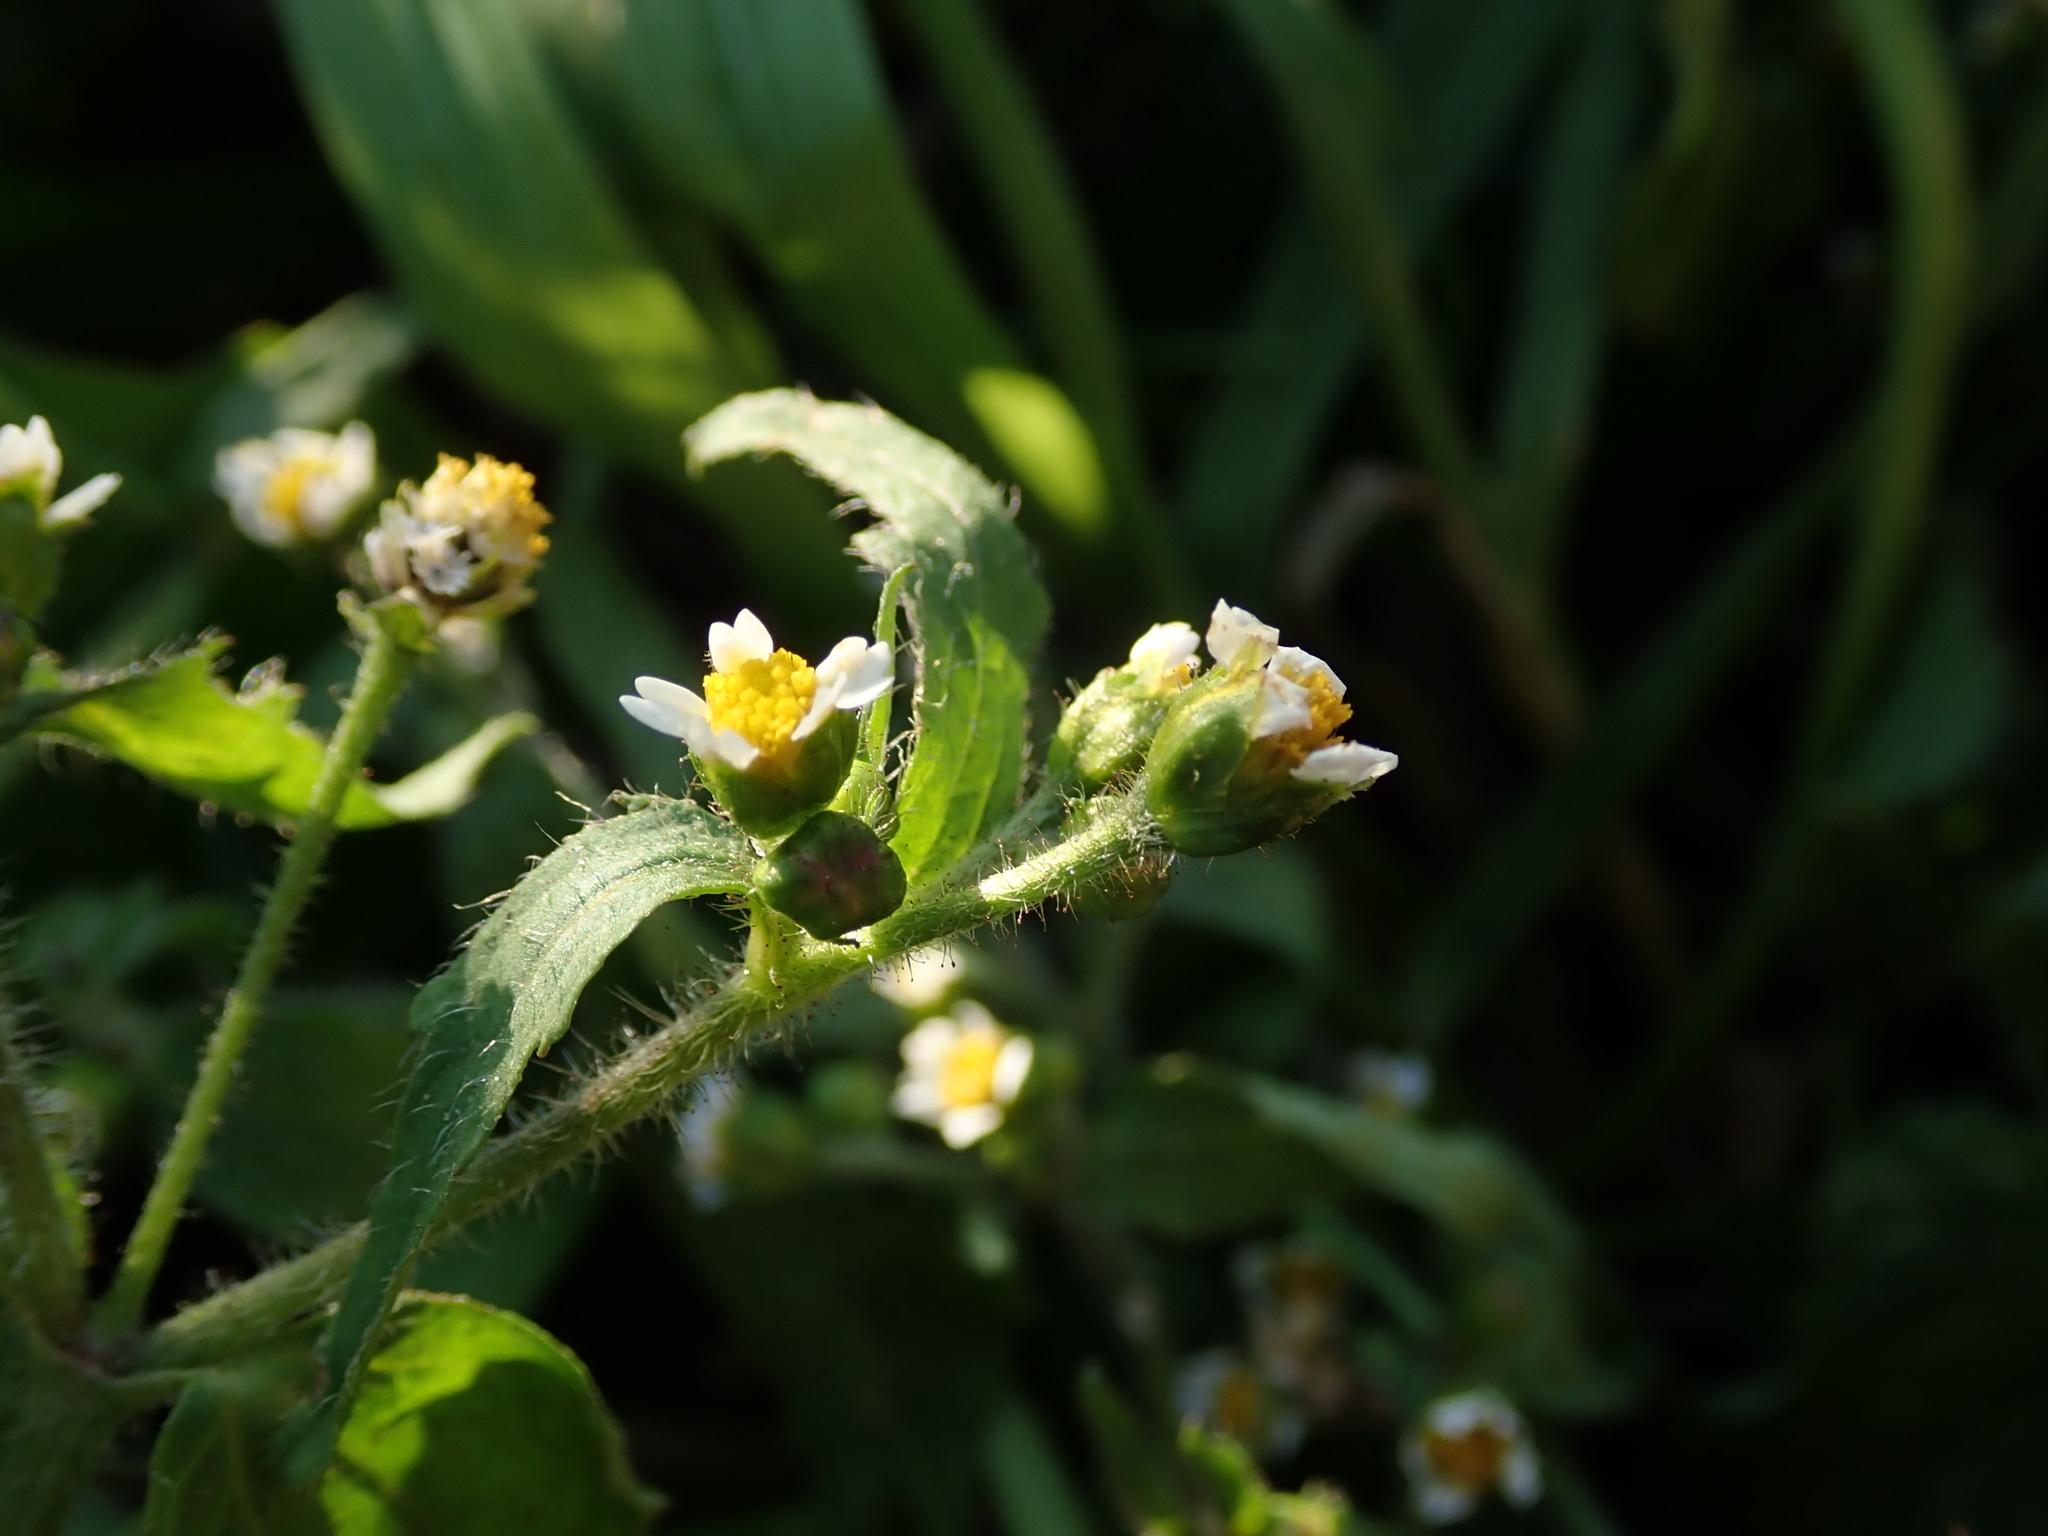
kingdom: Plantae
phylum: Tracheophyta
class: Magnoliopsida
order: Asterales
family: Asteraceae
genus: Galinsoga
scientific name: Galinsoga quadriradiata
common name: Shaggy soldier
